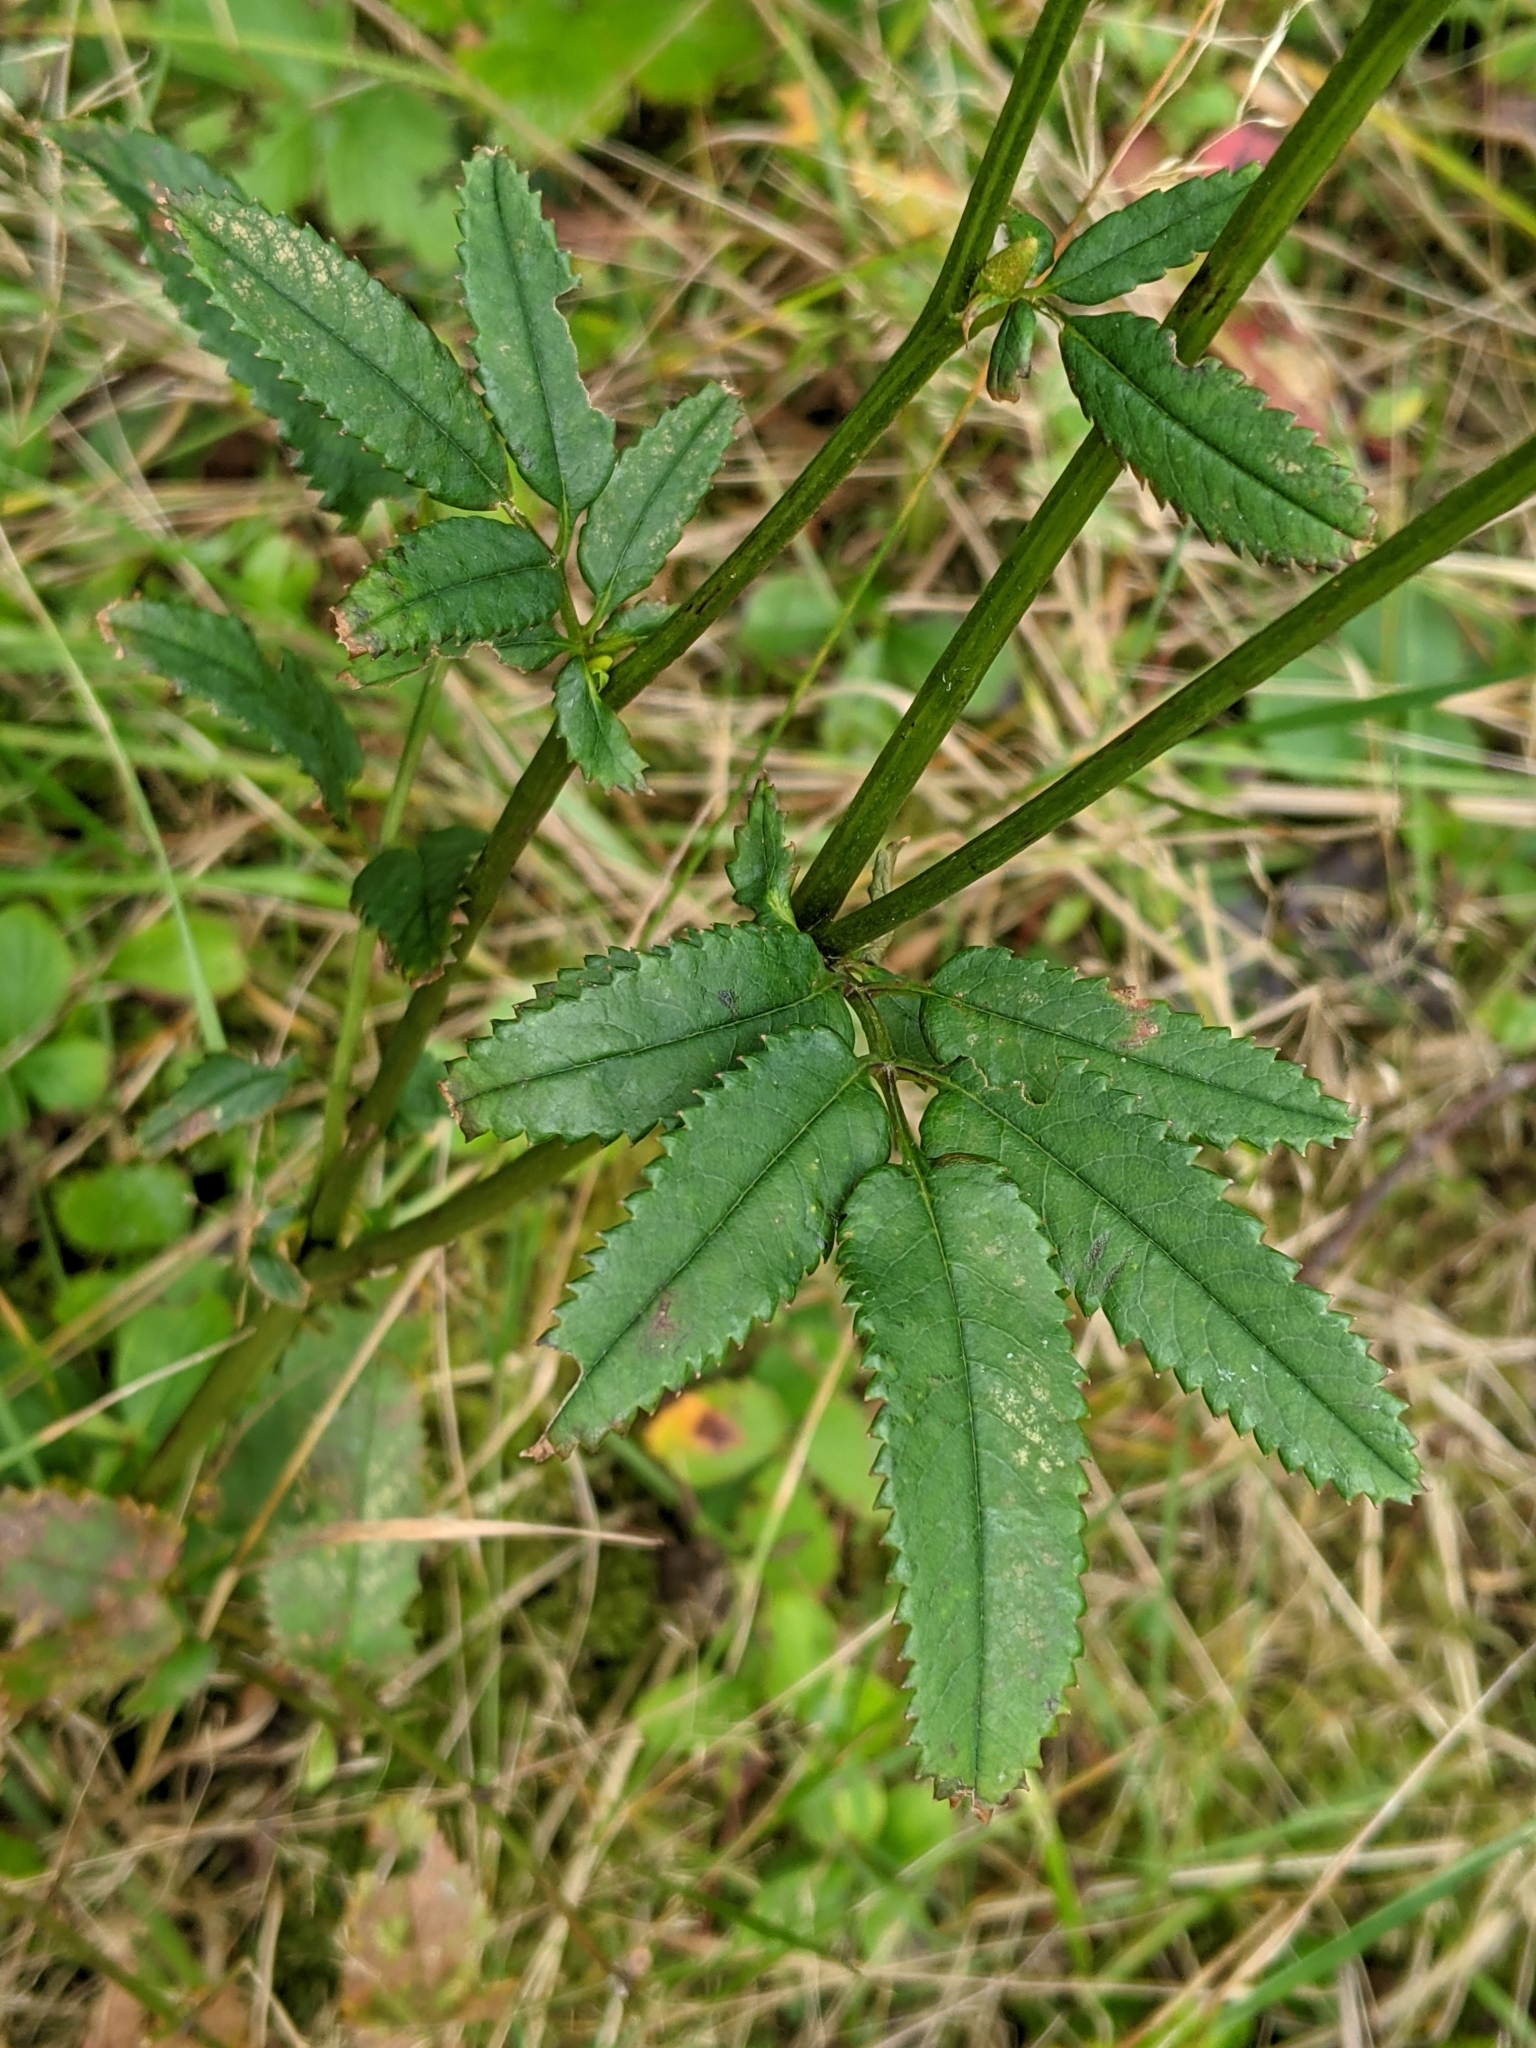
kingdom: Plantae
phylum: Tracheophyta
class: Magnoliopsida
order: Rosales
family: Rosaceae
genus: Sanguisorba
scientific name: Sanguisorba canadensis
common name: White burnet
